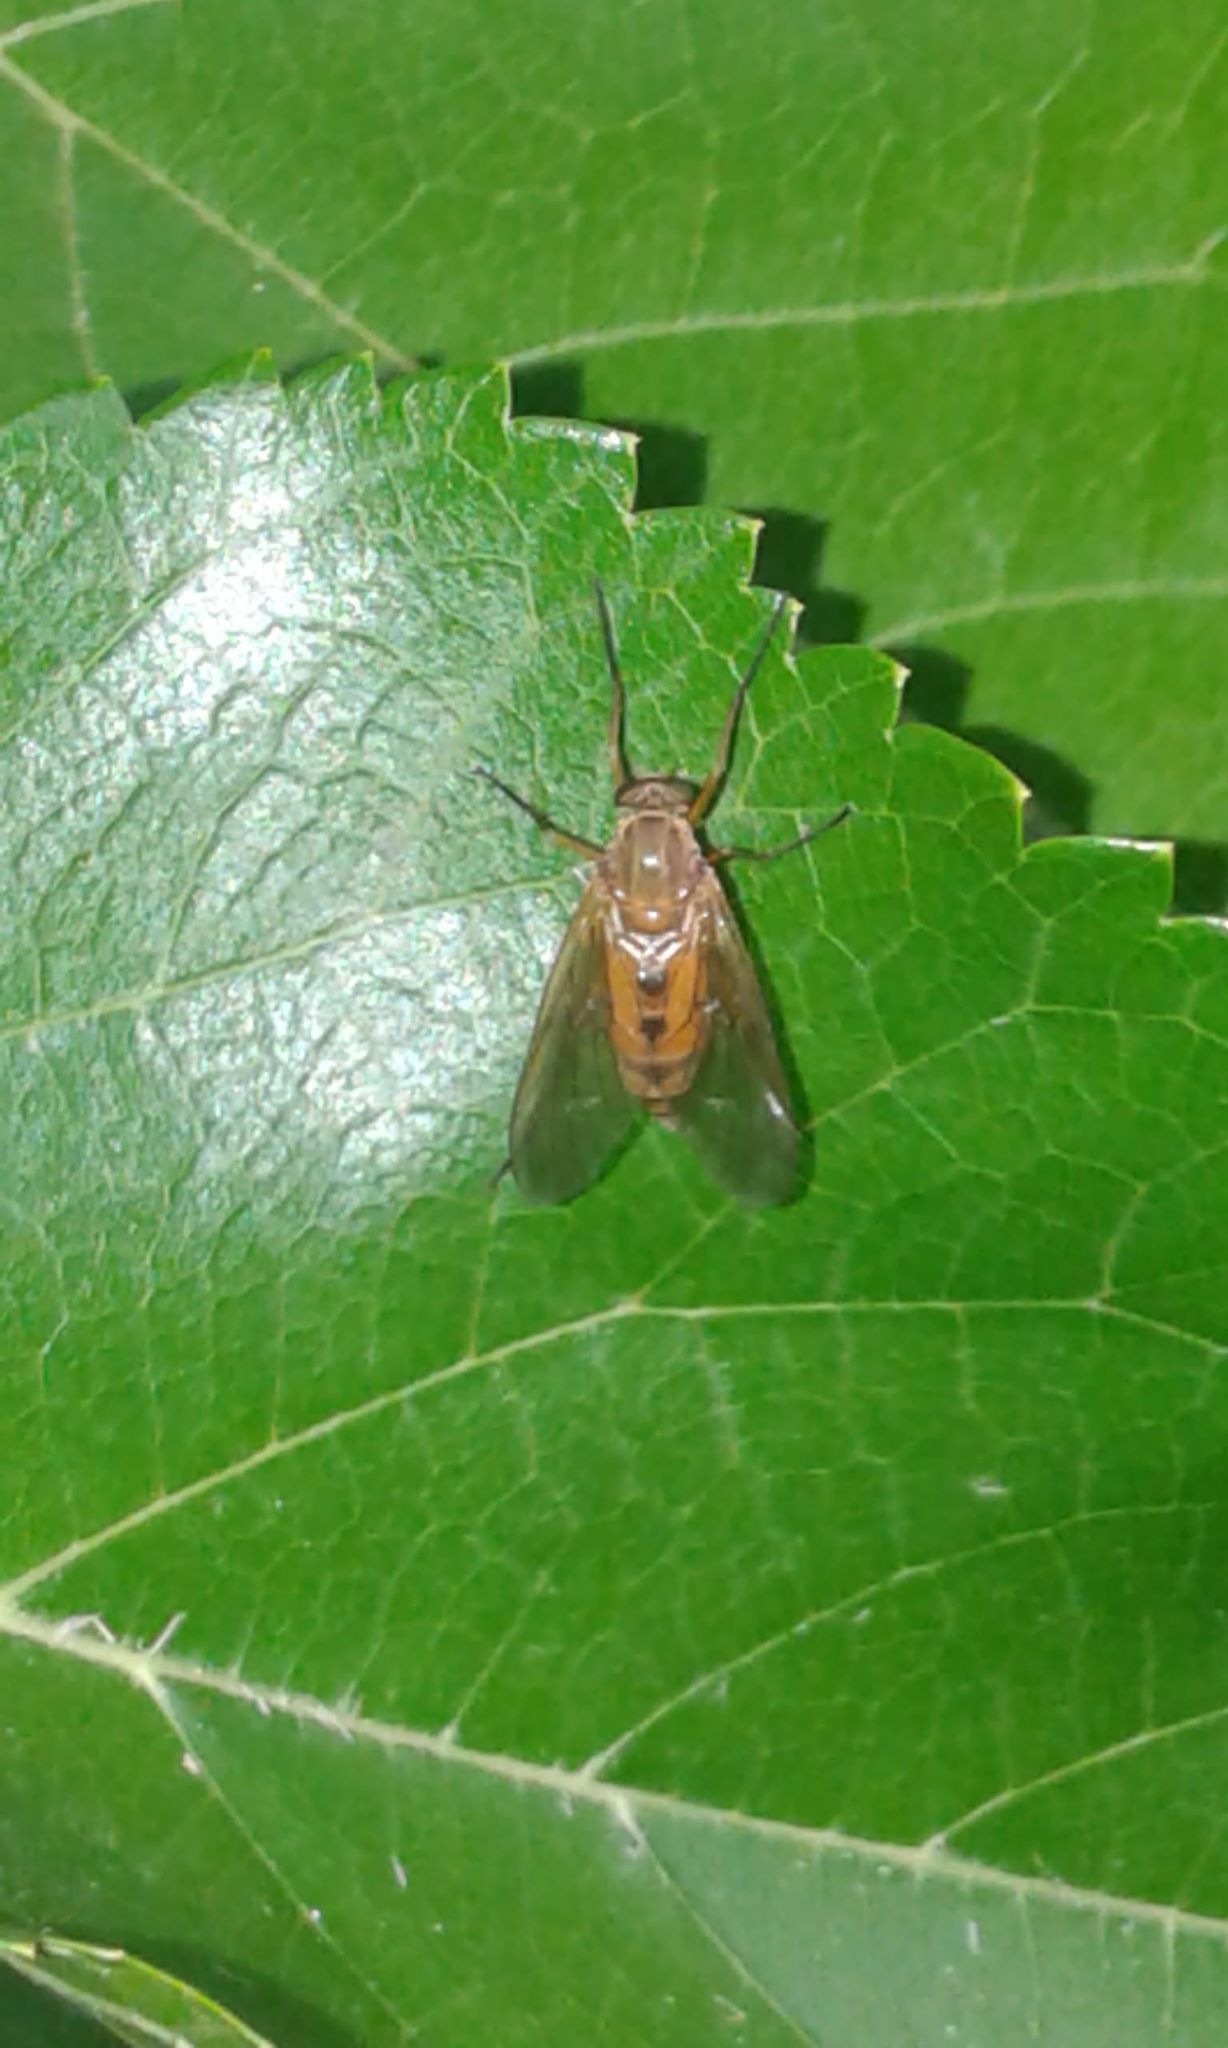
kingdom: Animalia
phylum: Arthropoda
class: Insecta
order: Diptera
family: Rhagionidae
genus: Rhagio
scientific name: Rhagio tringaria
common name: Marsh snipefly
